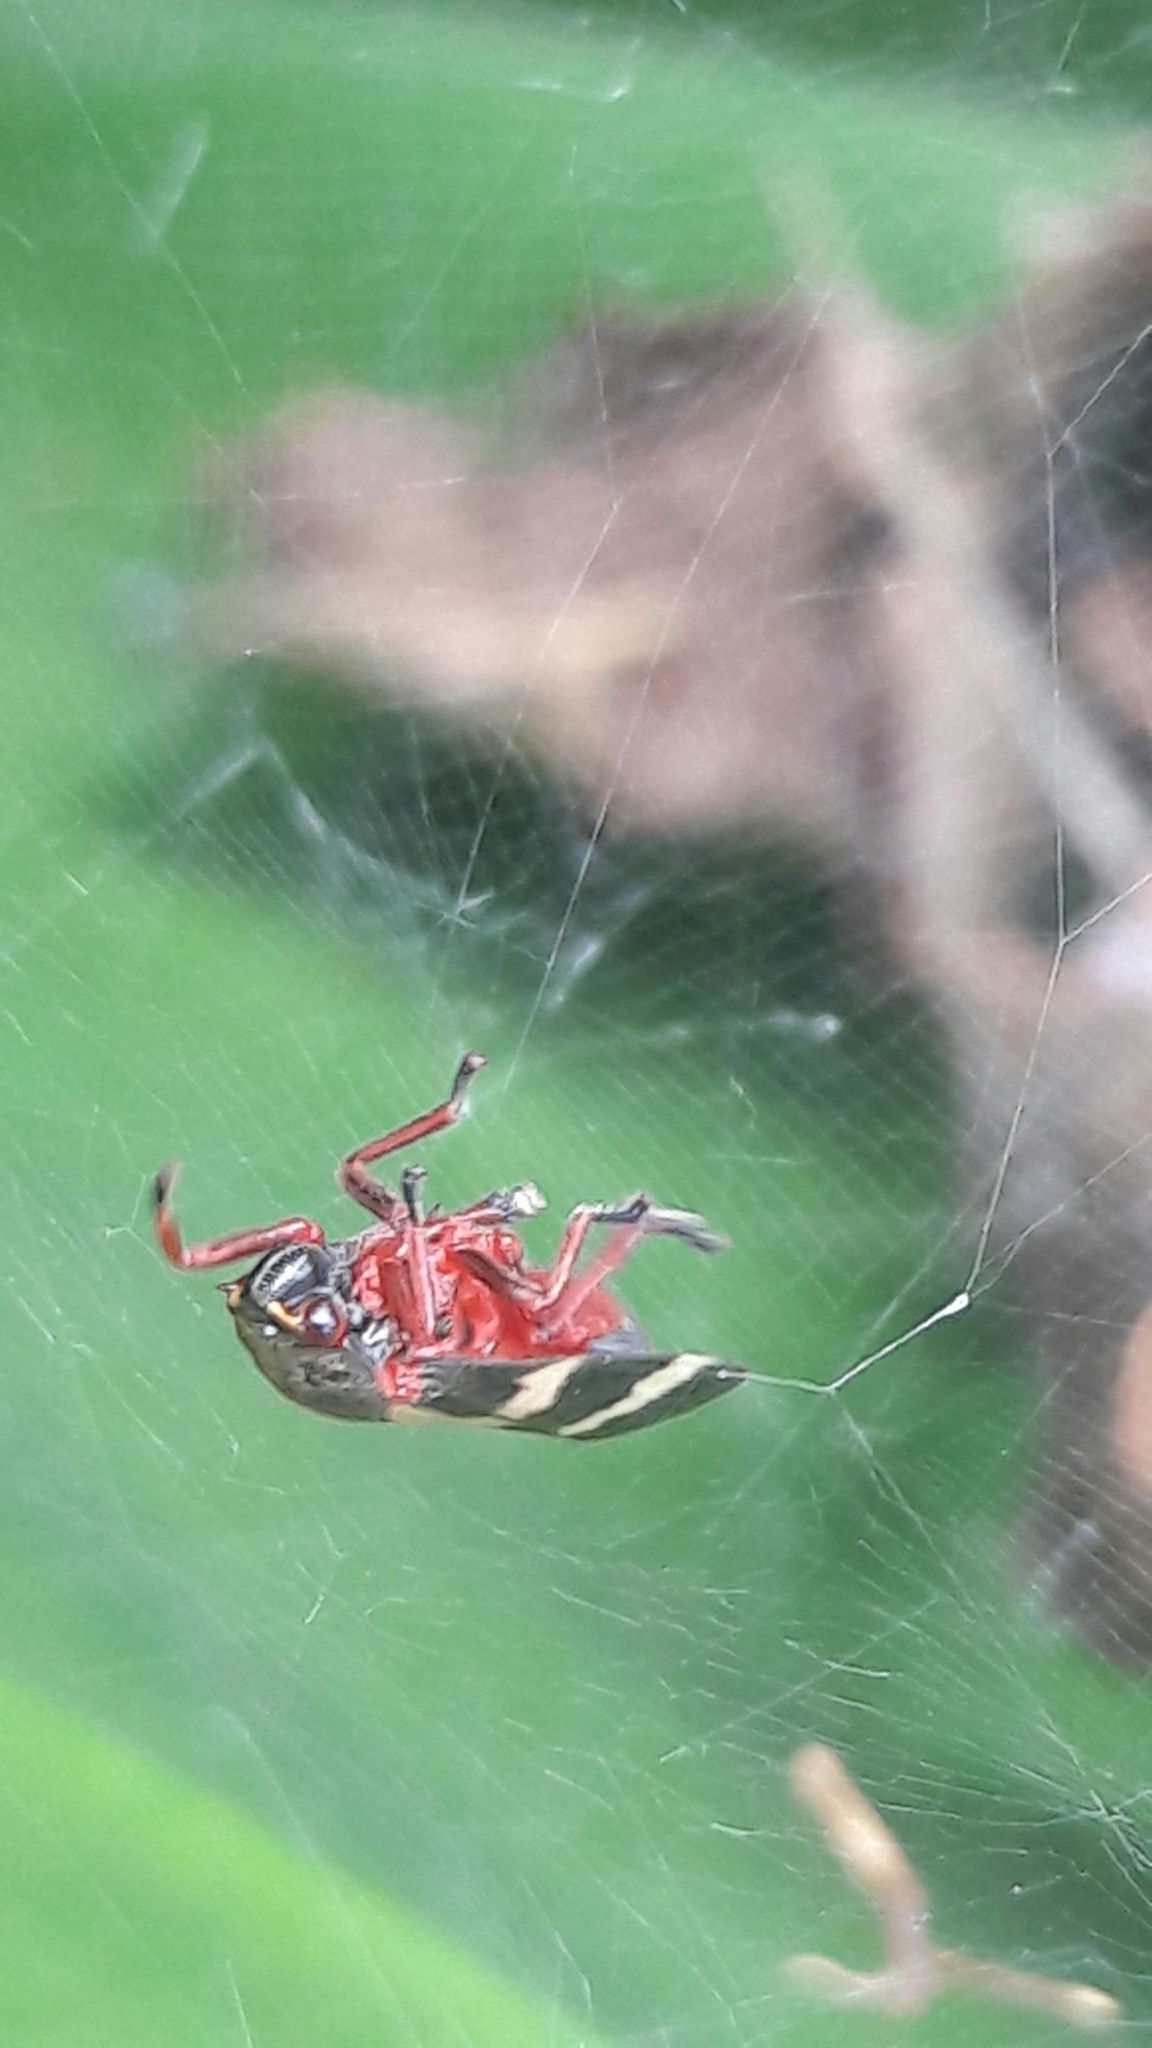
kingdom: Animalia
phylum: Arthropoda
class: Insecta
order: Hemiptera
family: Cercopidae
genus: Deois
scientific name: Deois flavopicta
